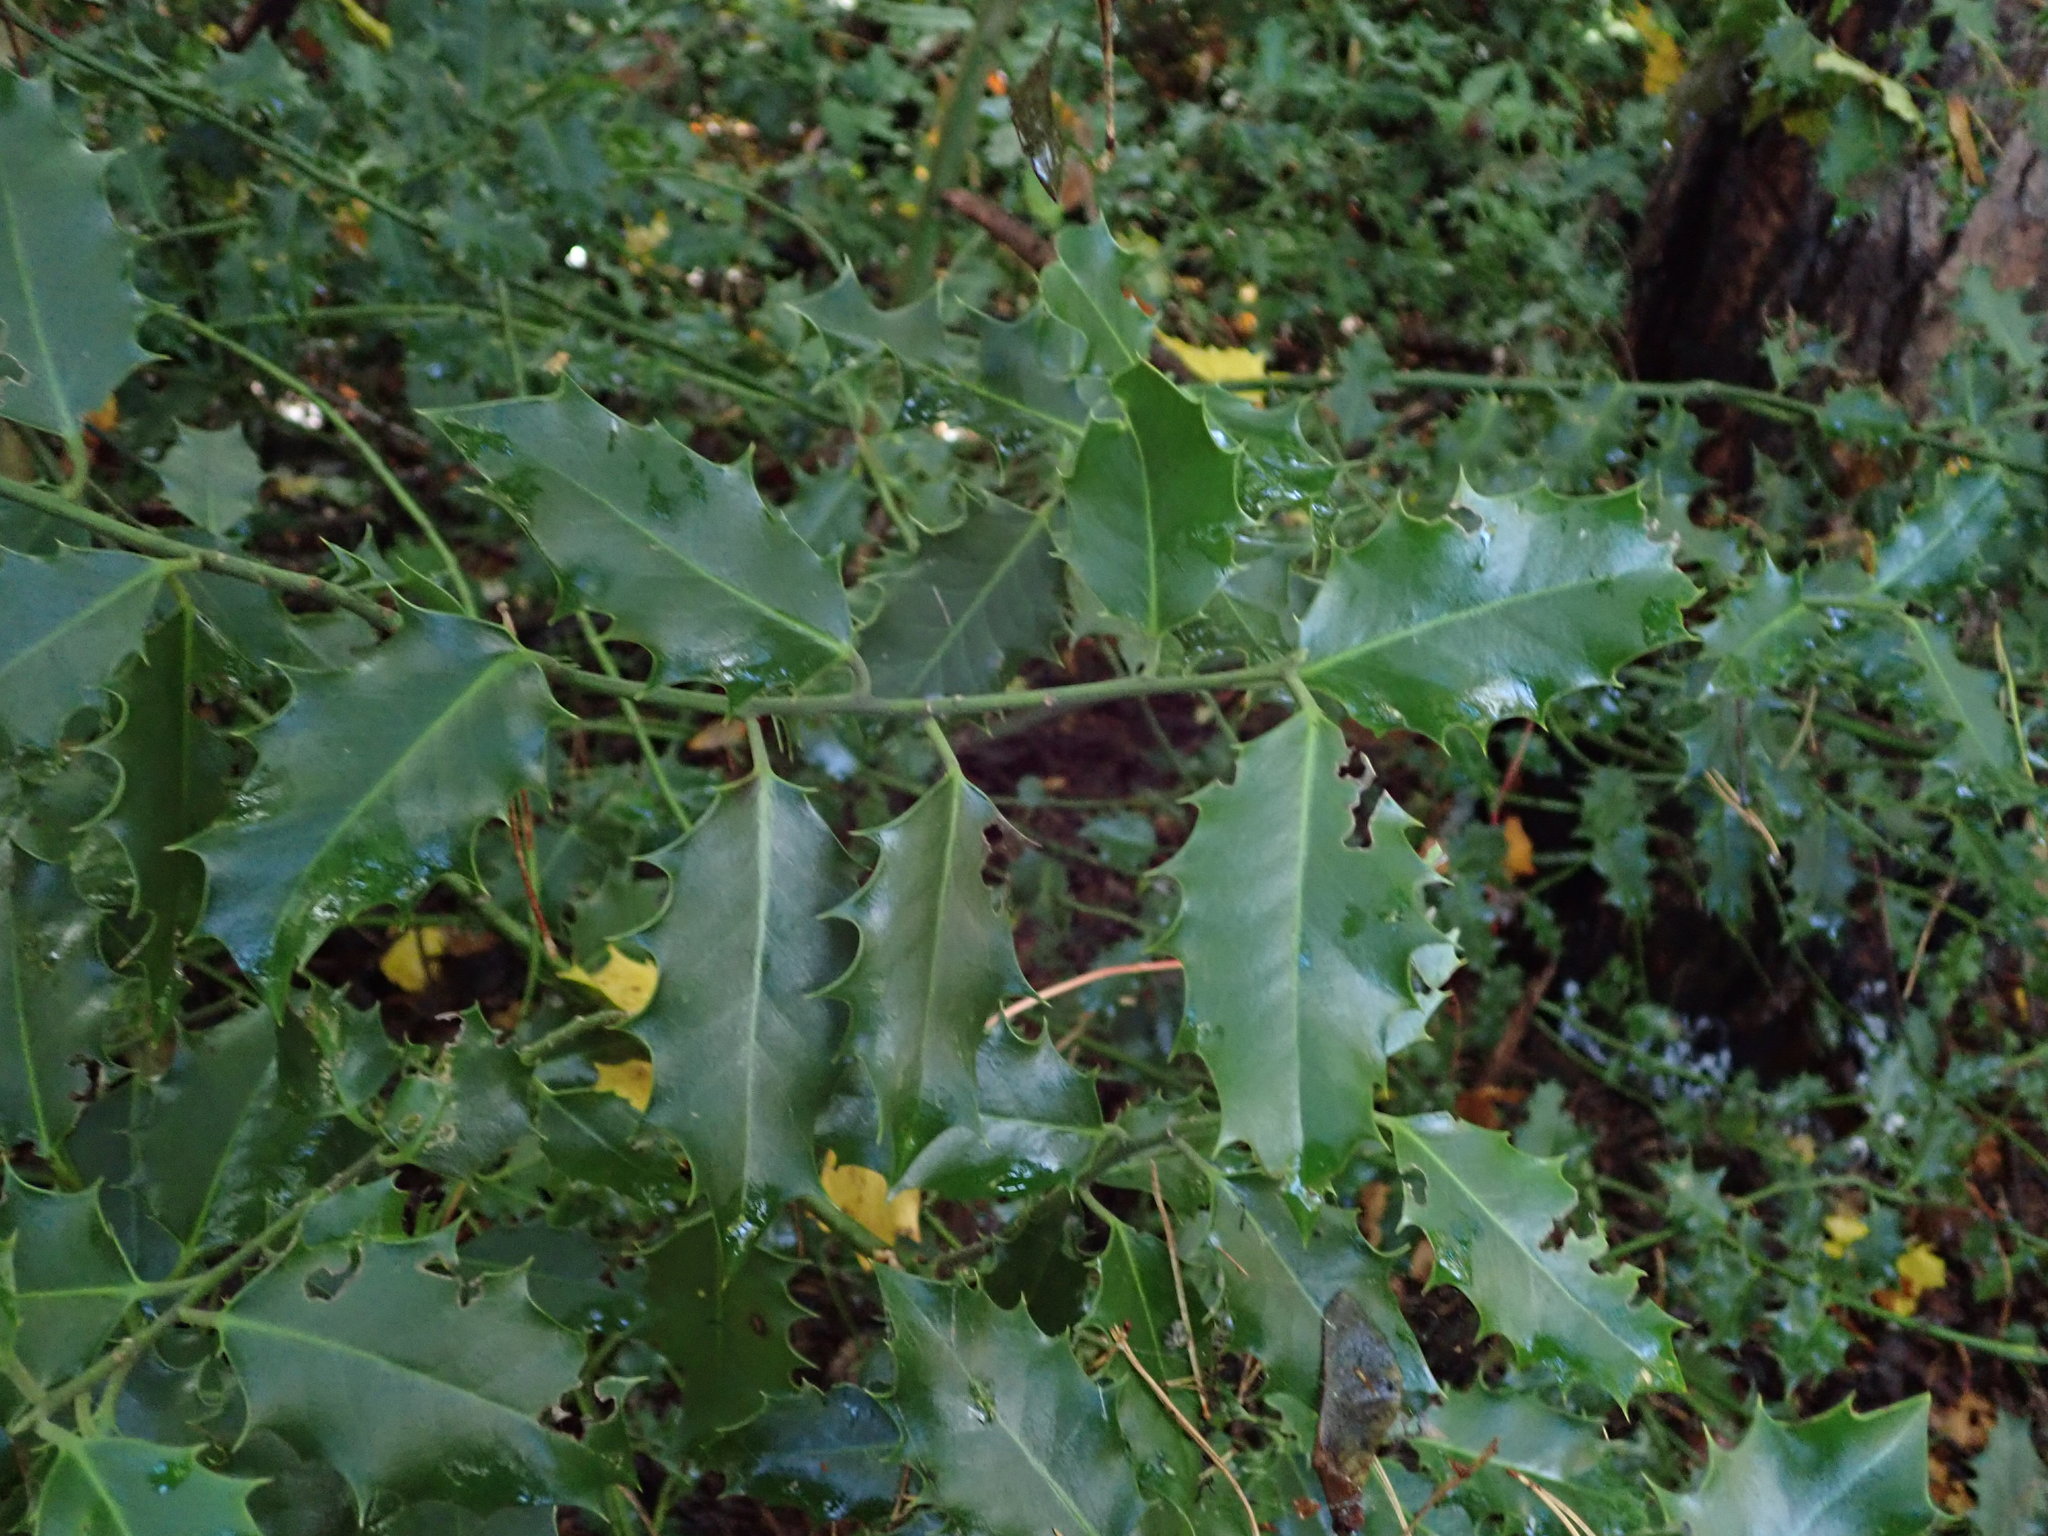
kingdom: Plantae
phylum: Tracheophyta
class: Magnoliopsida
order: Aquifoliales
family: Aquifoliaceae
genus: Ilex
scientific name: Ilex aquifolium
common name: English holly
